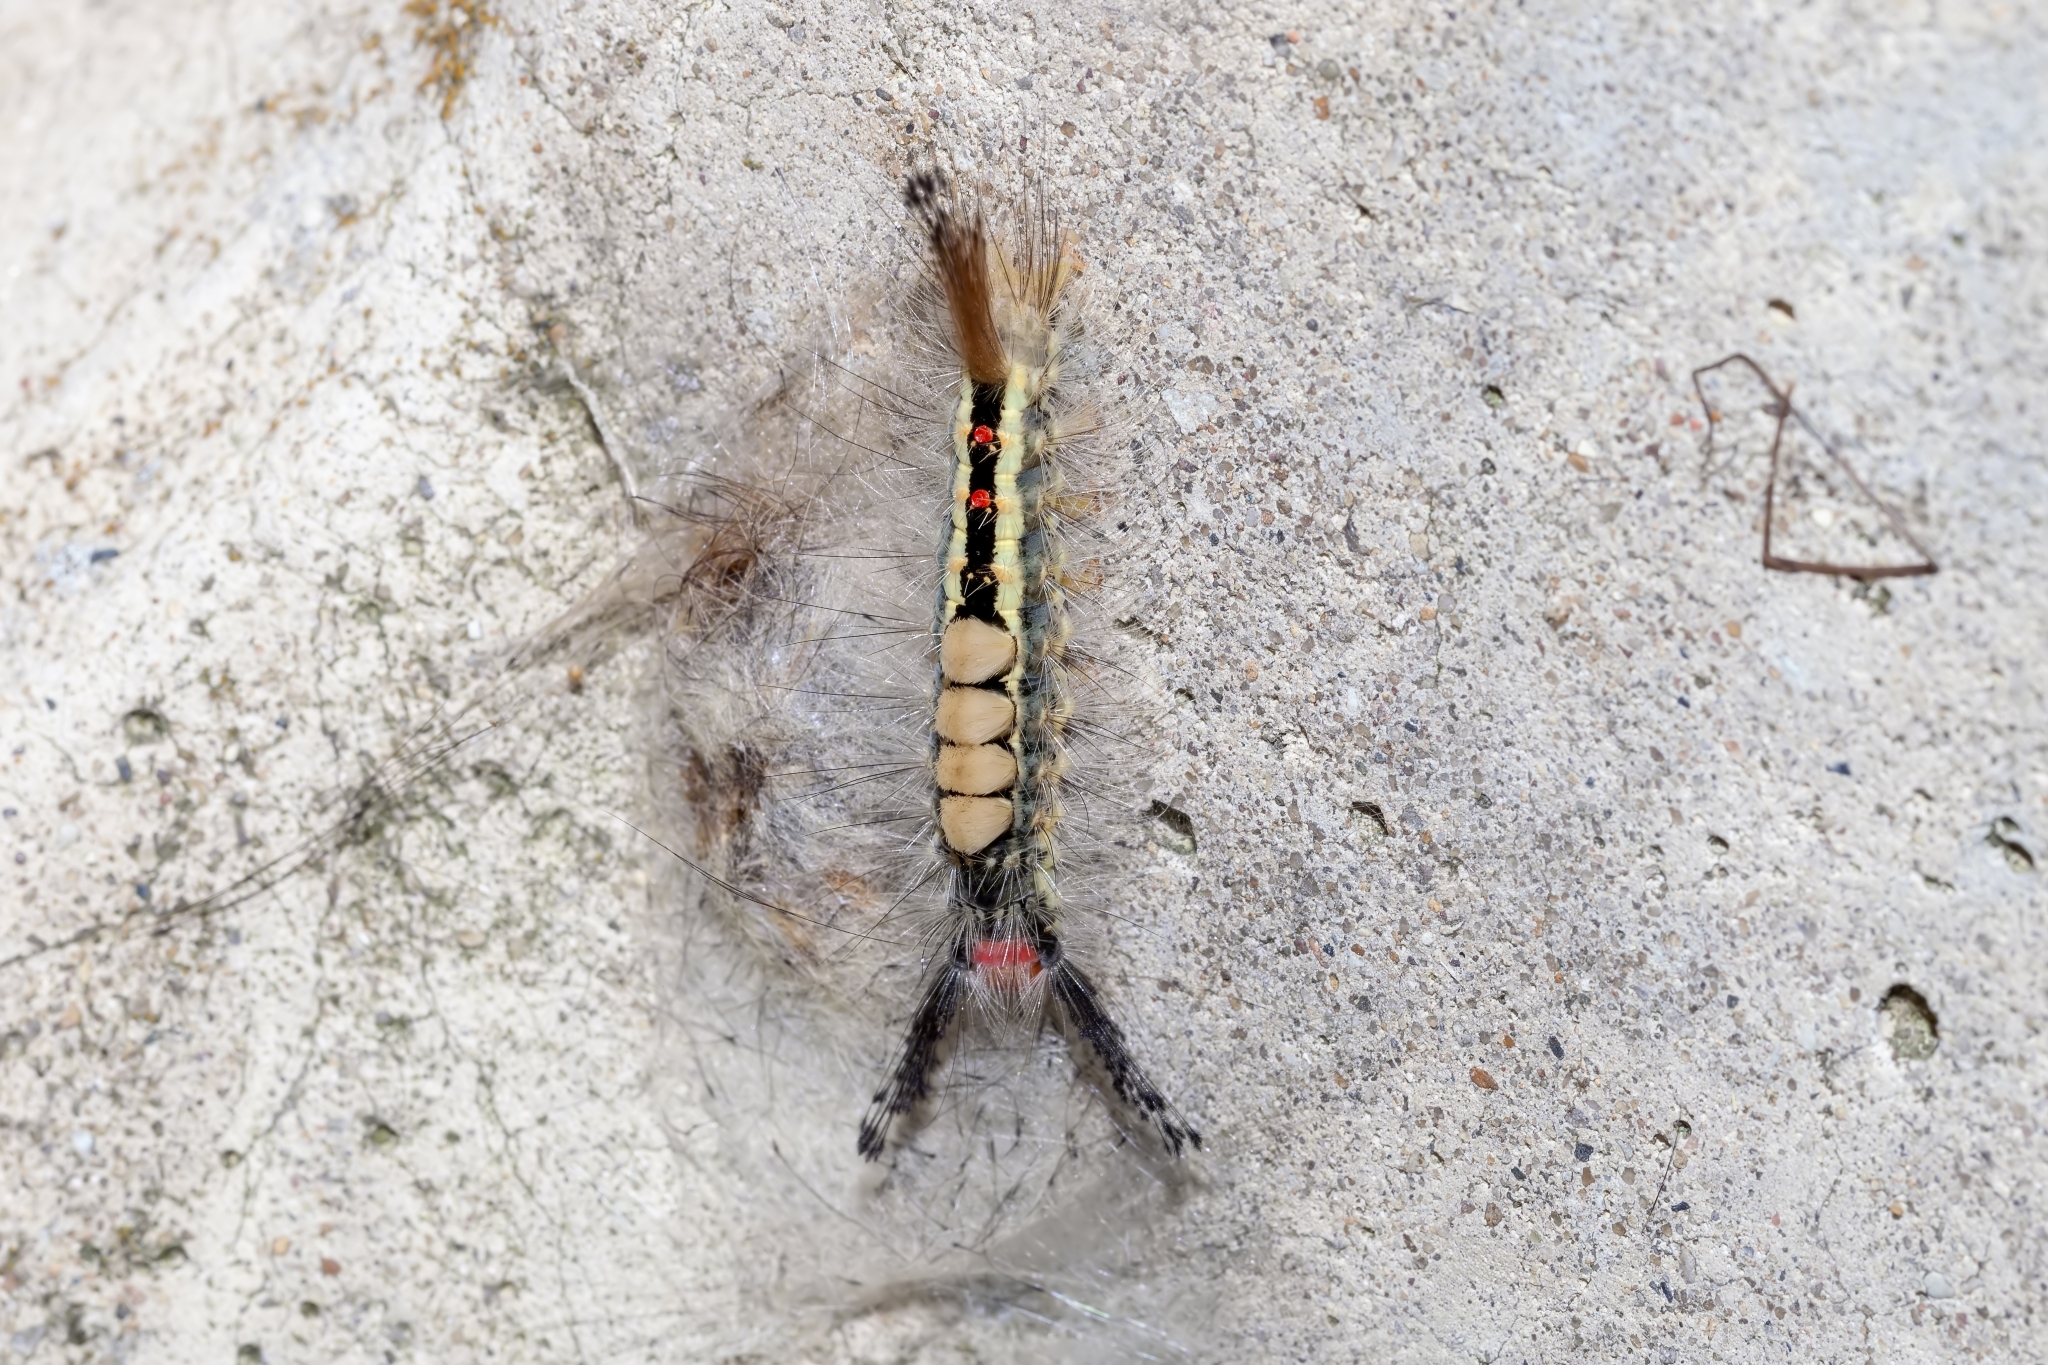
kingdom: Animalia
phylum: Arthropoda
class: Insecta
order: Lepidoptera
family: Erebidae
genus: Orgyia
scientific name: Orgyia leucostigma
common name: White-marked tussock moth
